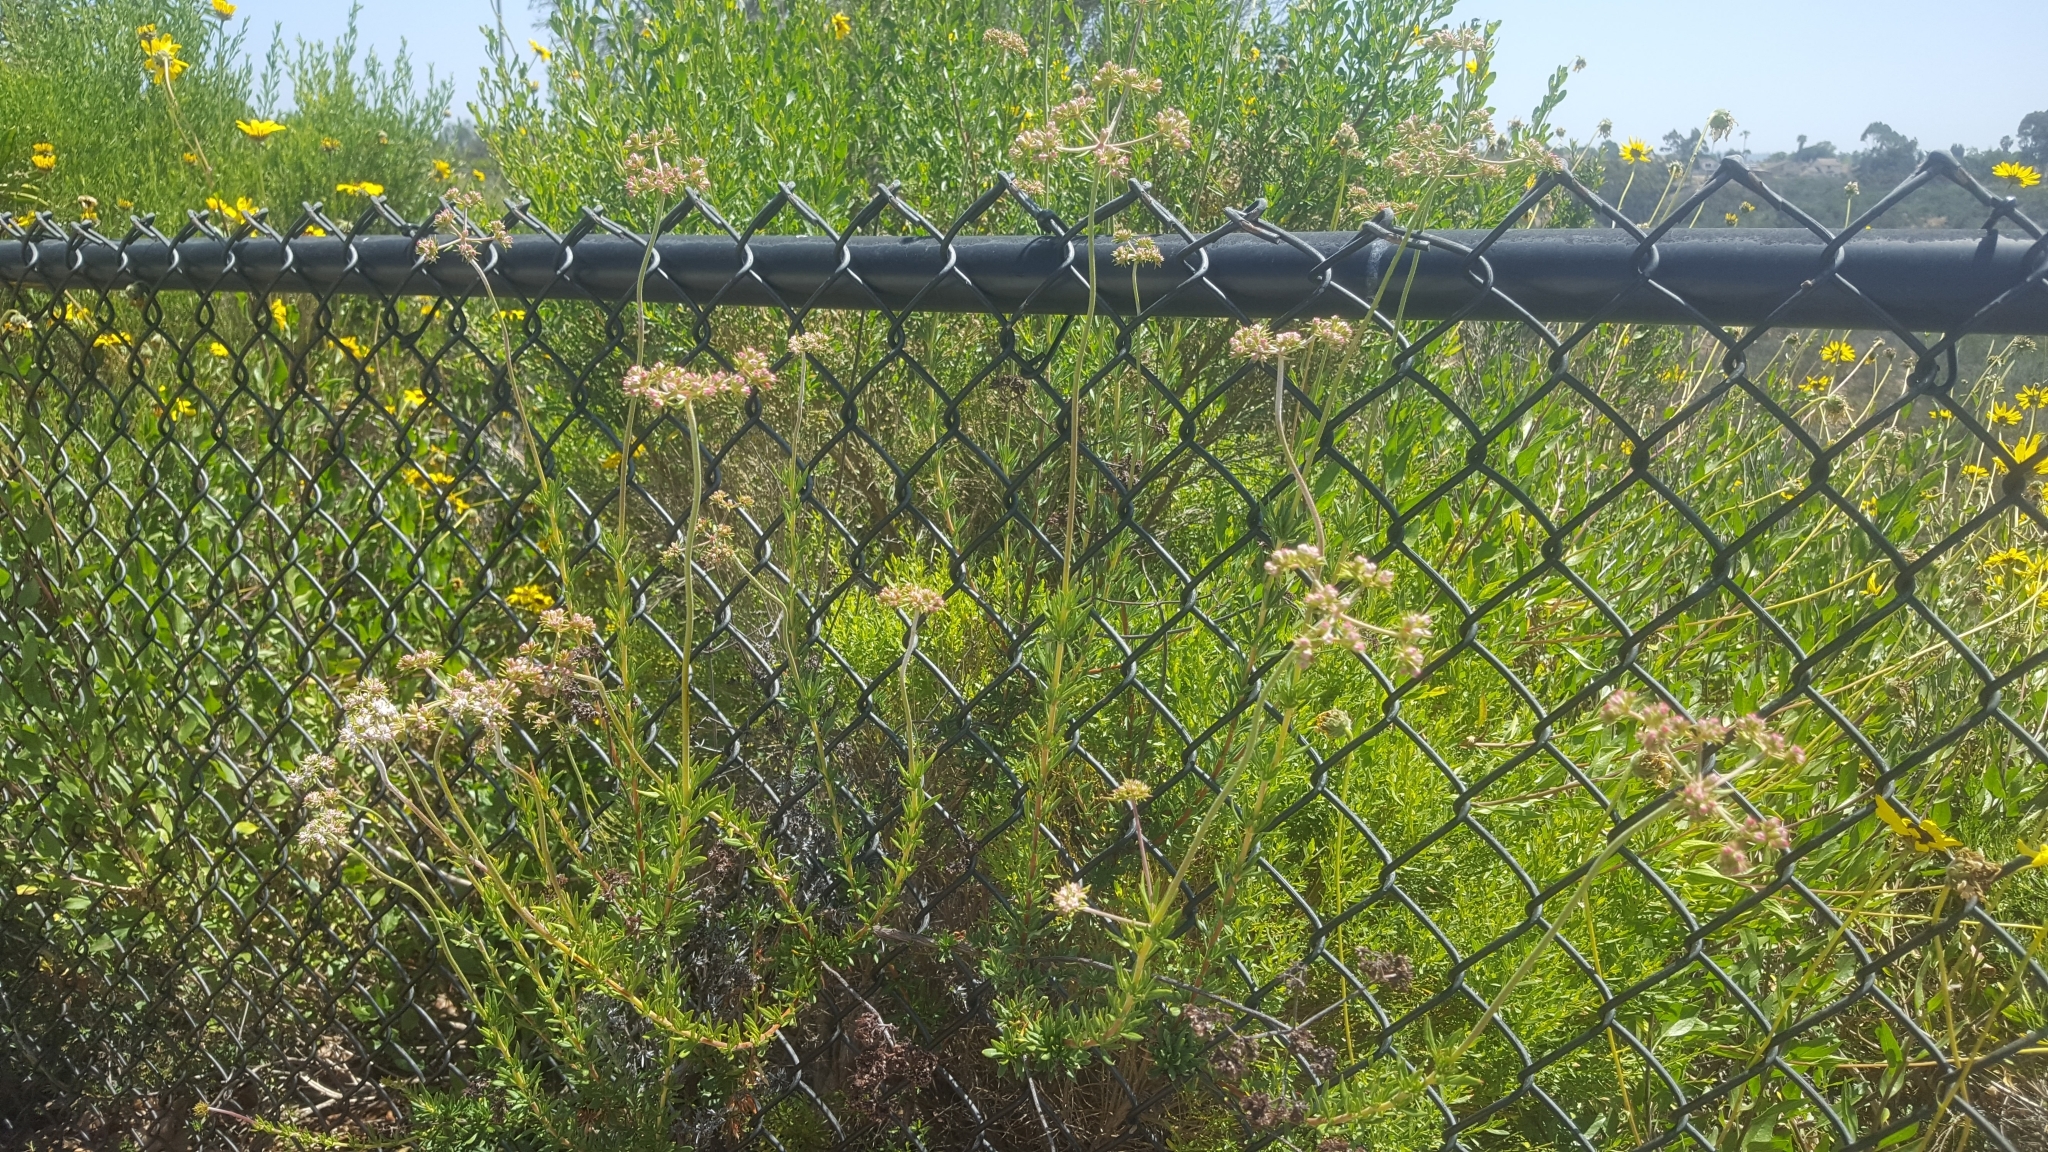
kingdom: Plantae
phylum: Tracheophyta
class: Magnoliopsida
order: Caryophyllales
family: Polygonaceae
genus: Eriogonum
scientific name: Eriogonum fasciculatum
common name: California wild buckwheat
